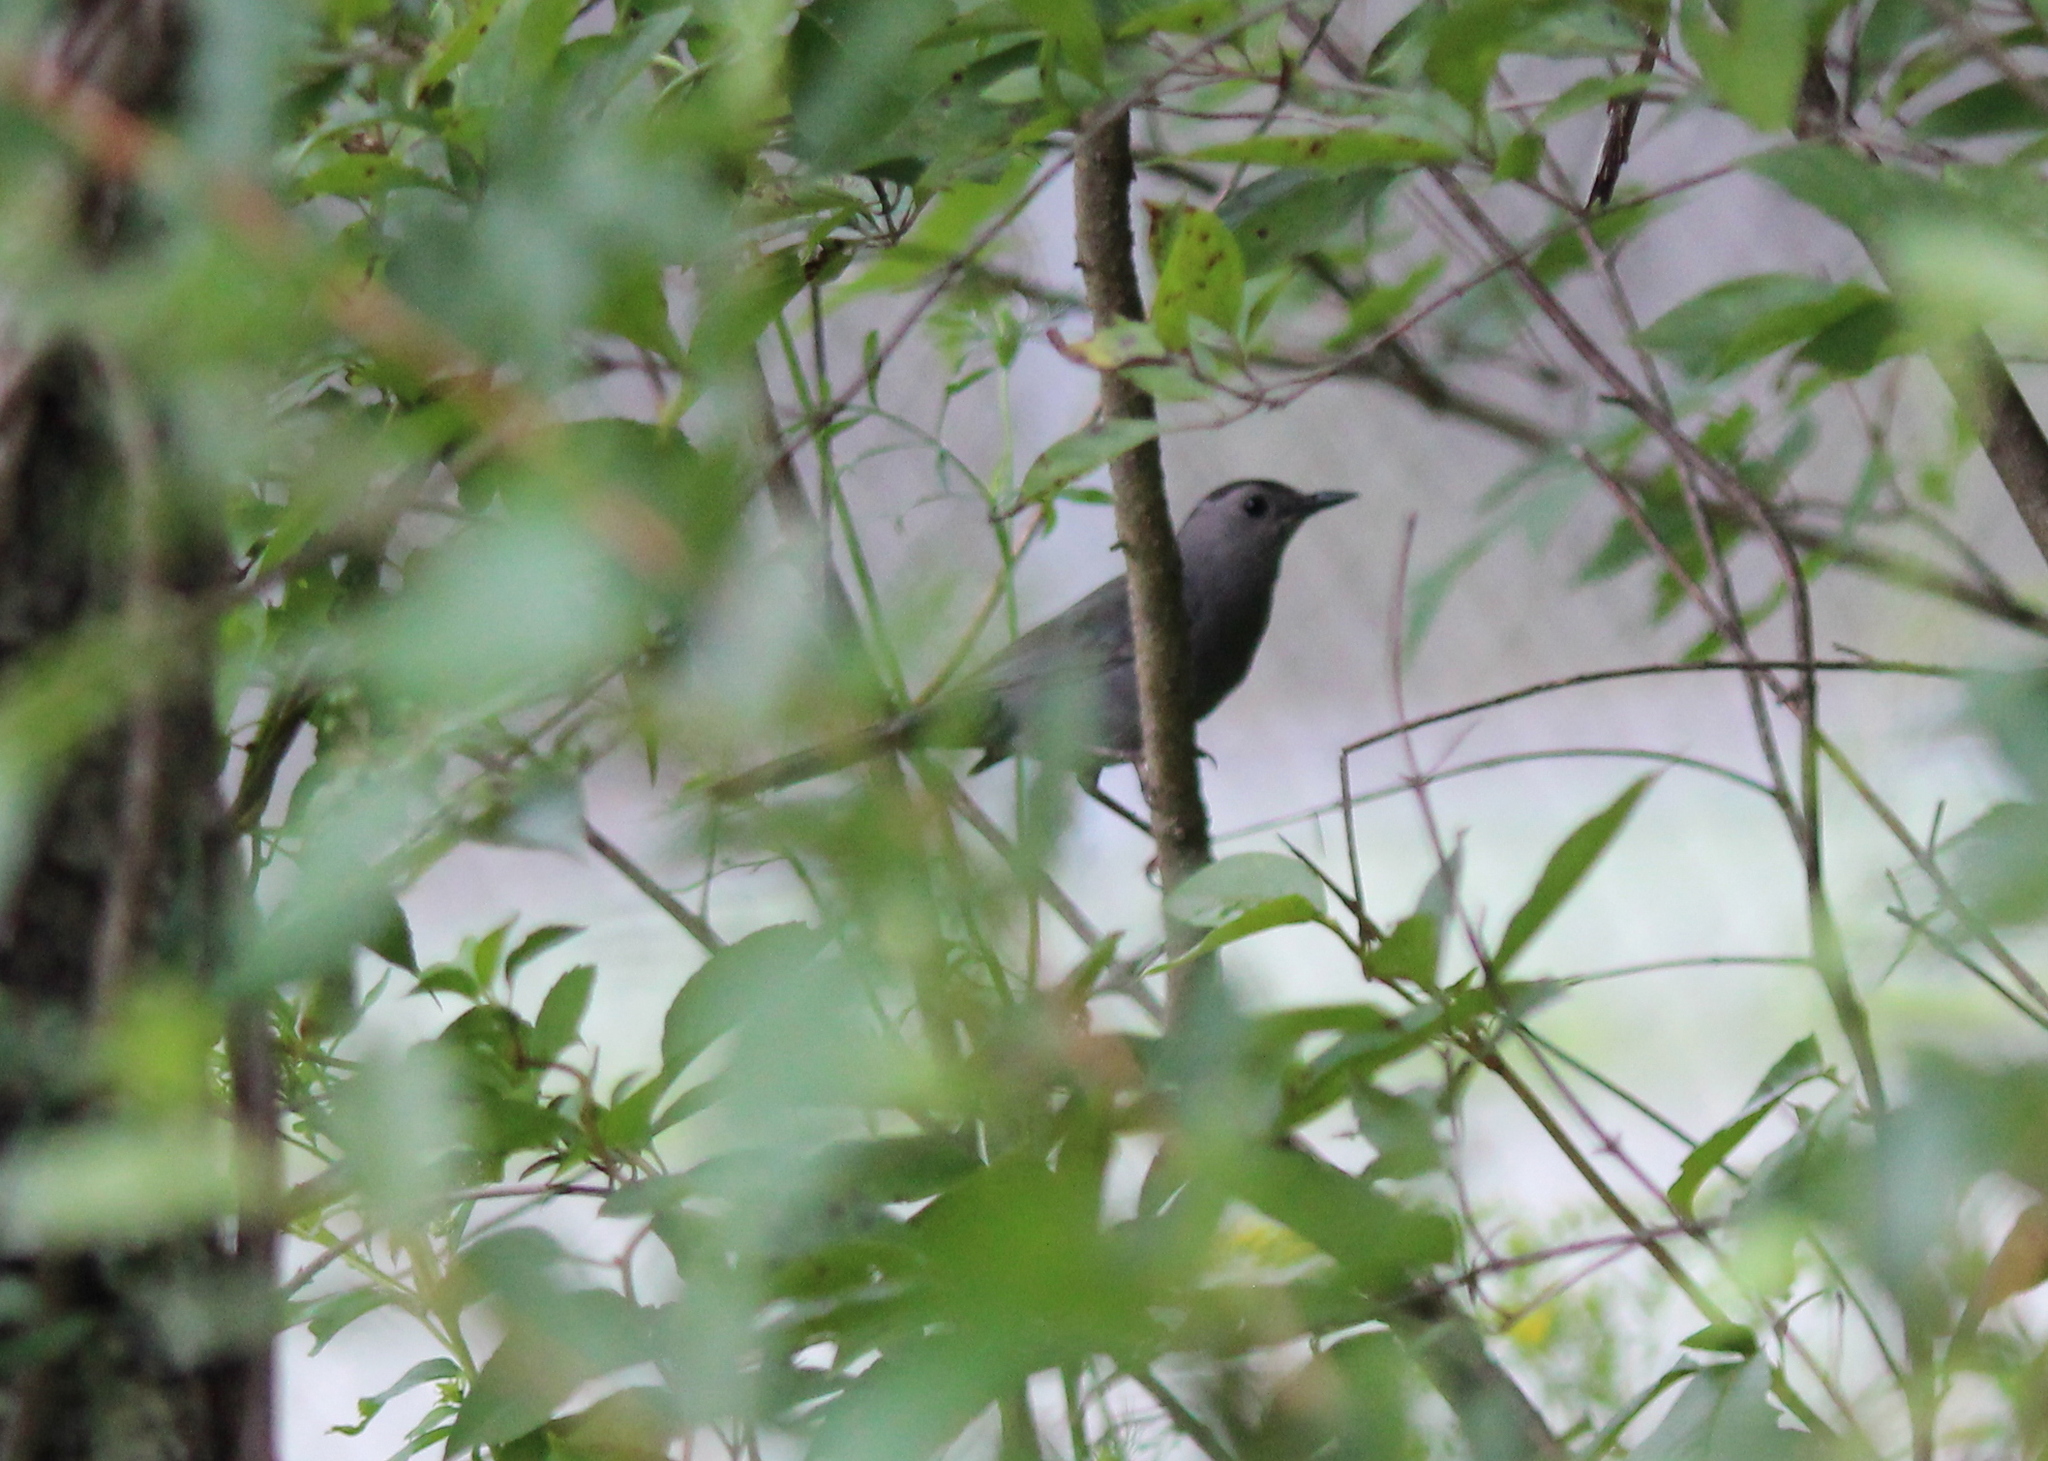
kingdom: Animalia
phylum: Chordata
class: Aves
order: Passeriformes
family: Mimidae
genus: Dumetella
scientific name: Dumetella carolinensis
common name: Gray catbird
